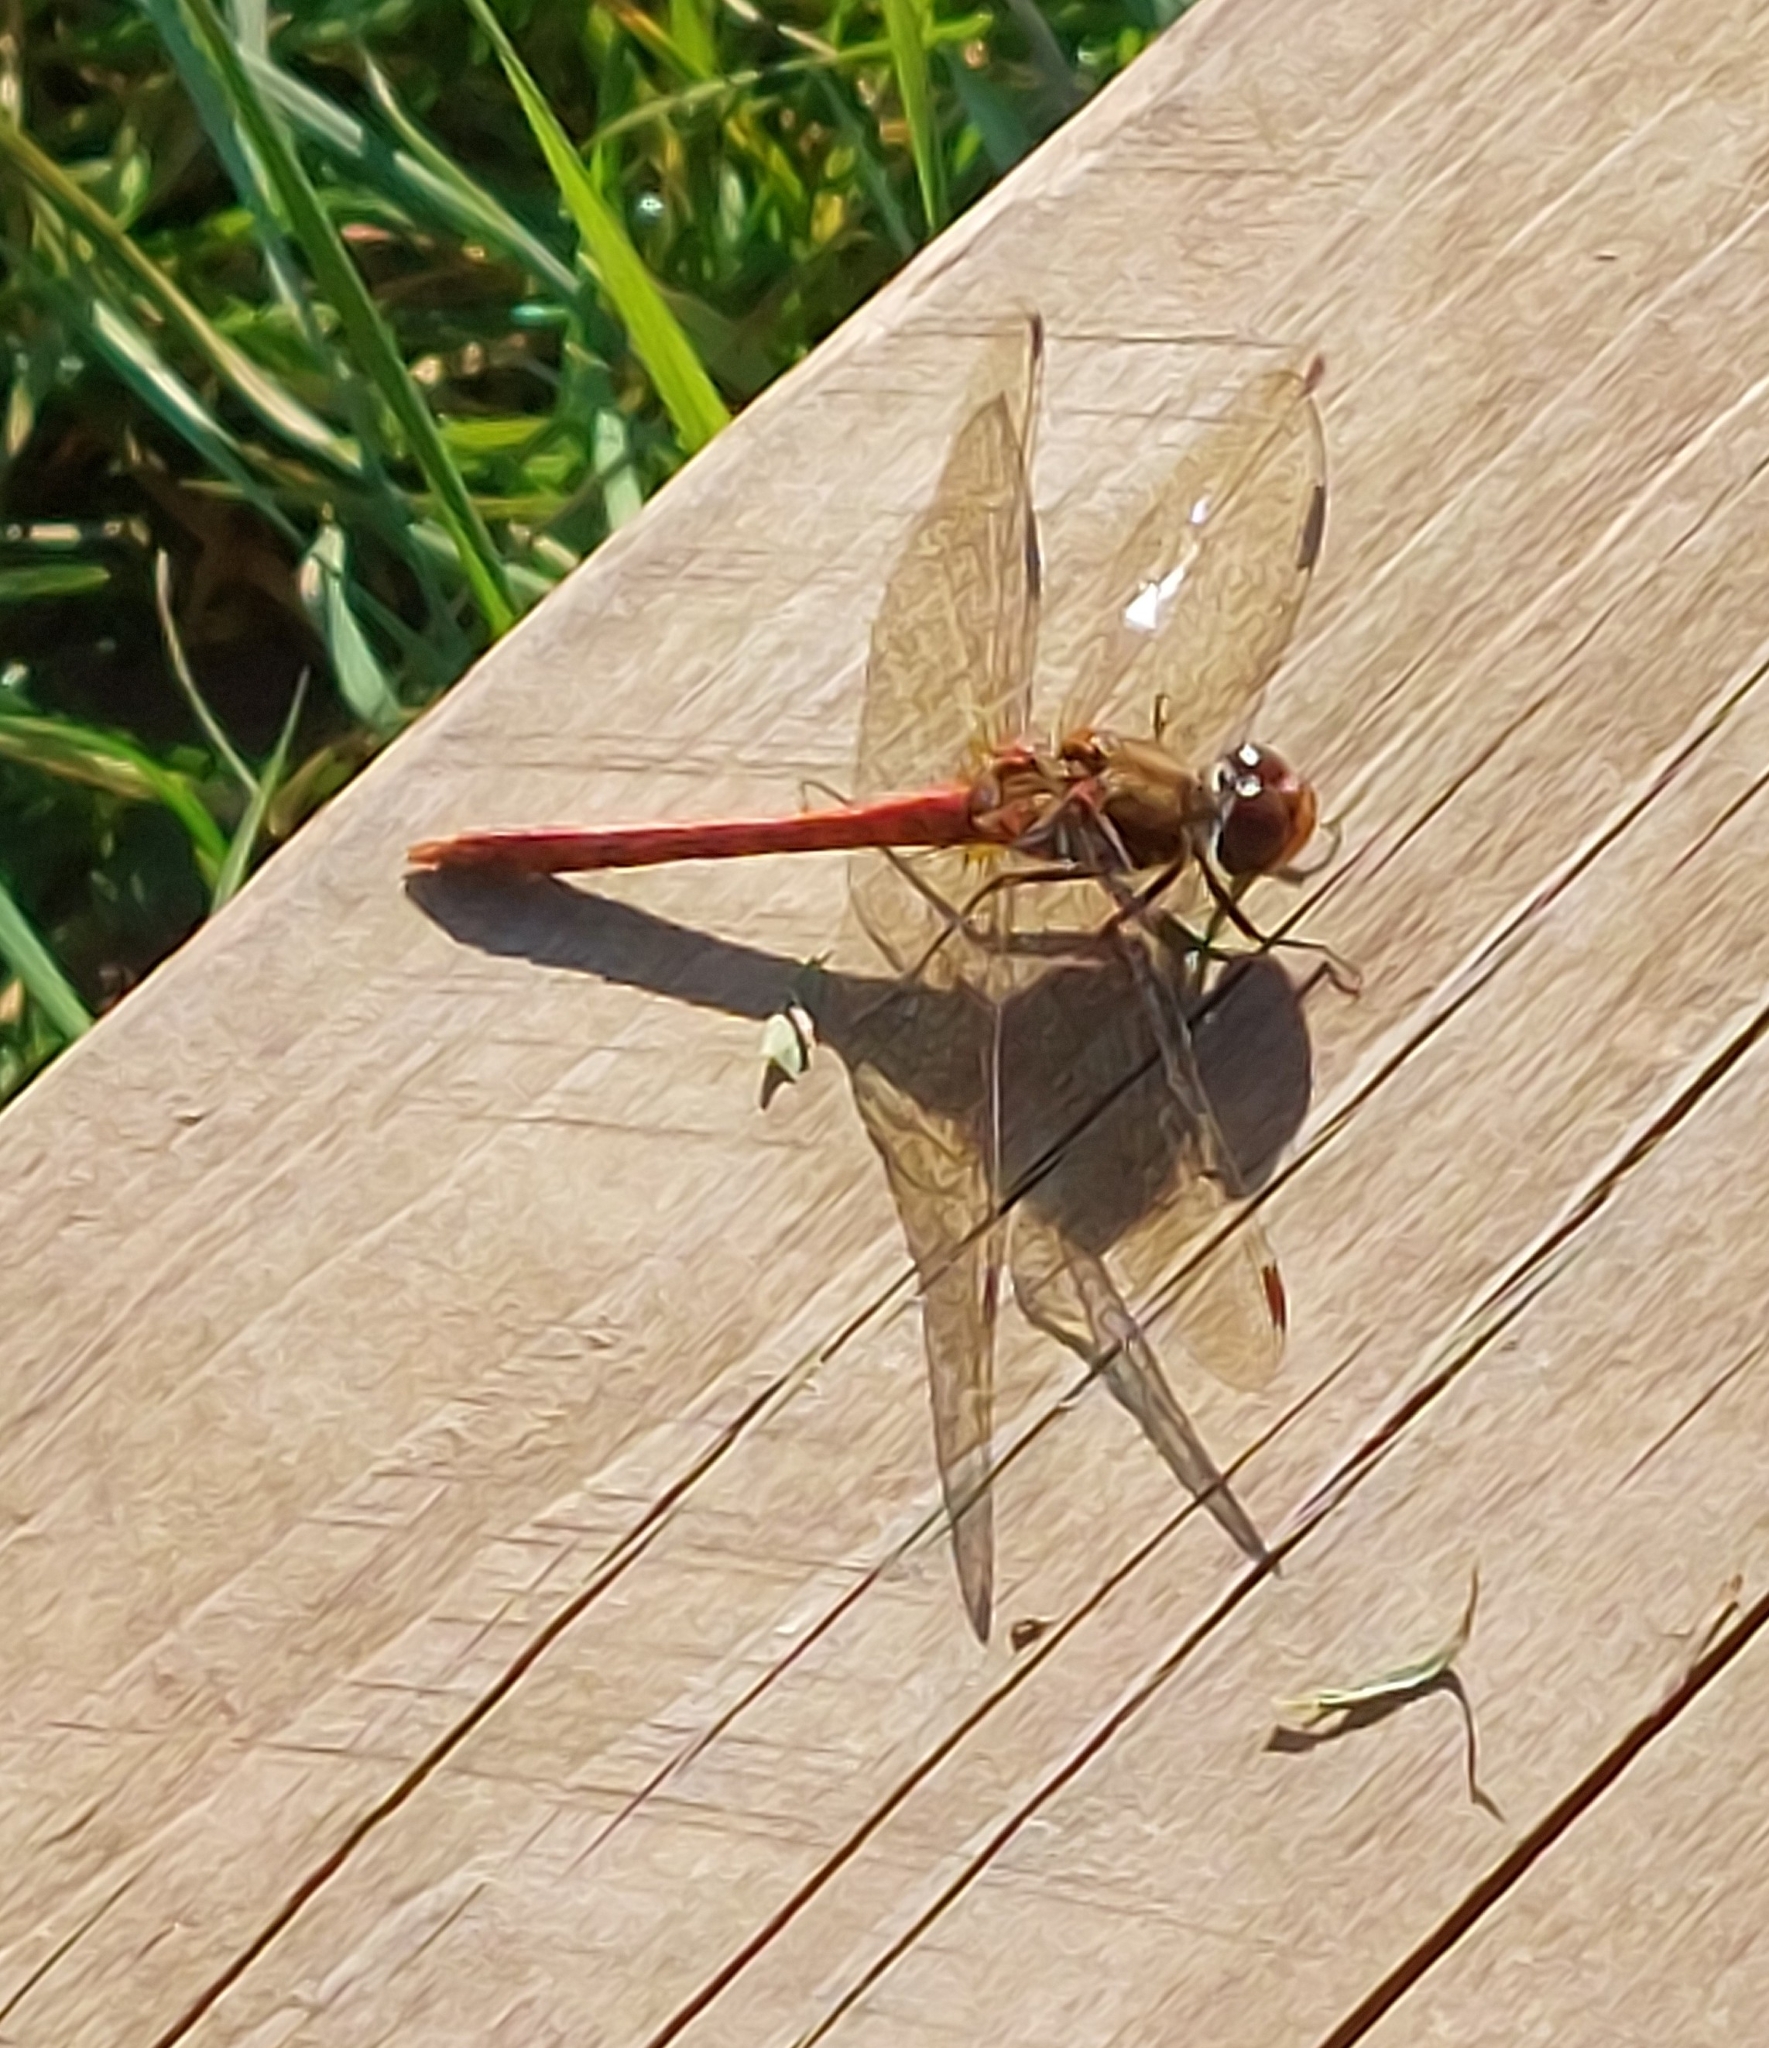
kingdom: Animalia
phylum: Arthropoda
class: Insecta
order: Odonata
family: Libellulidae
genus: Sympetrum
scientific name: Sympetrum striolatum
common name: Common darter
